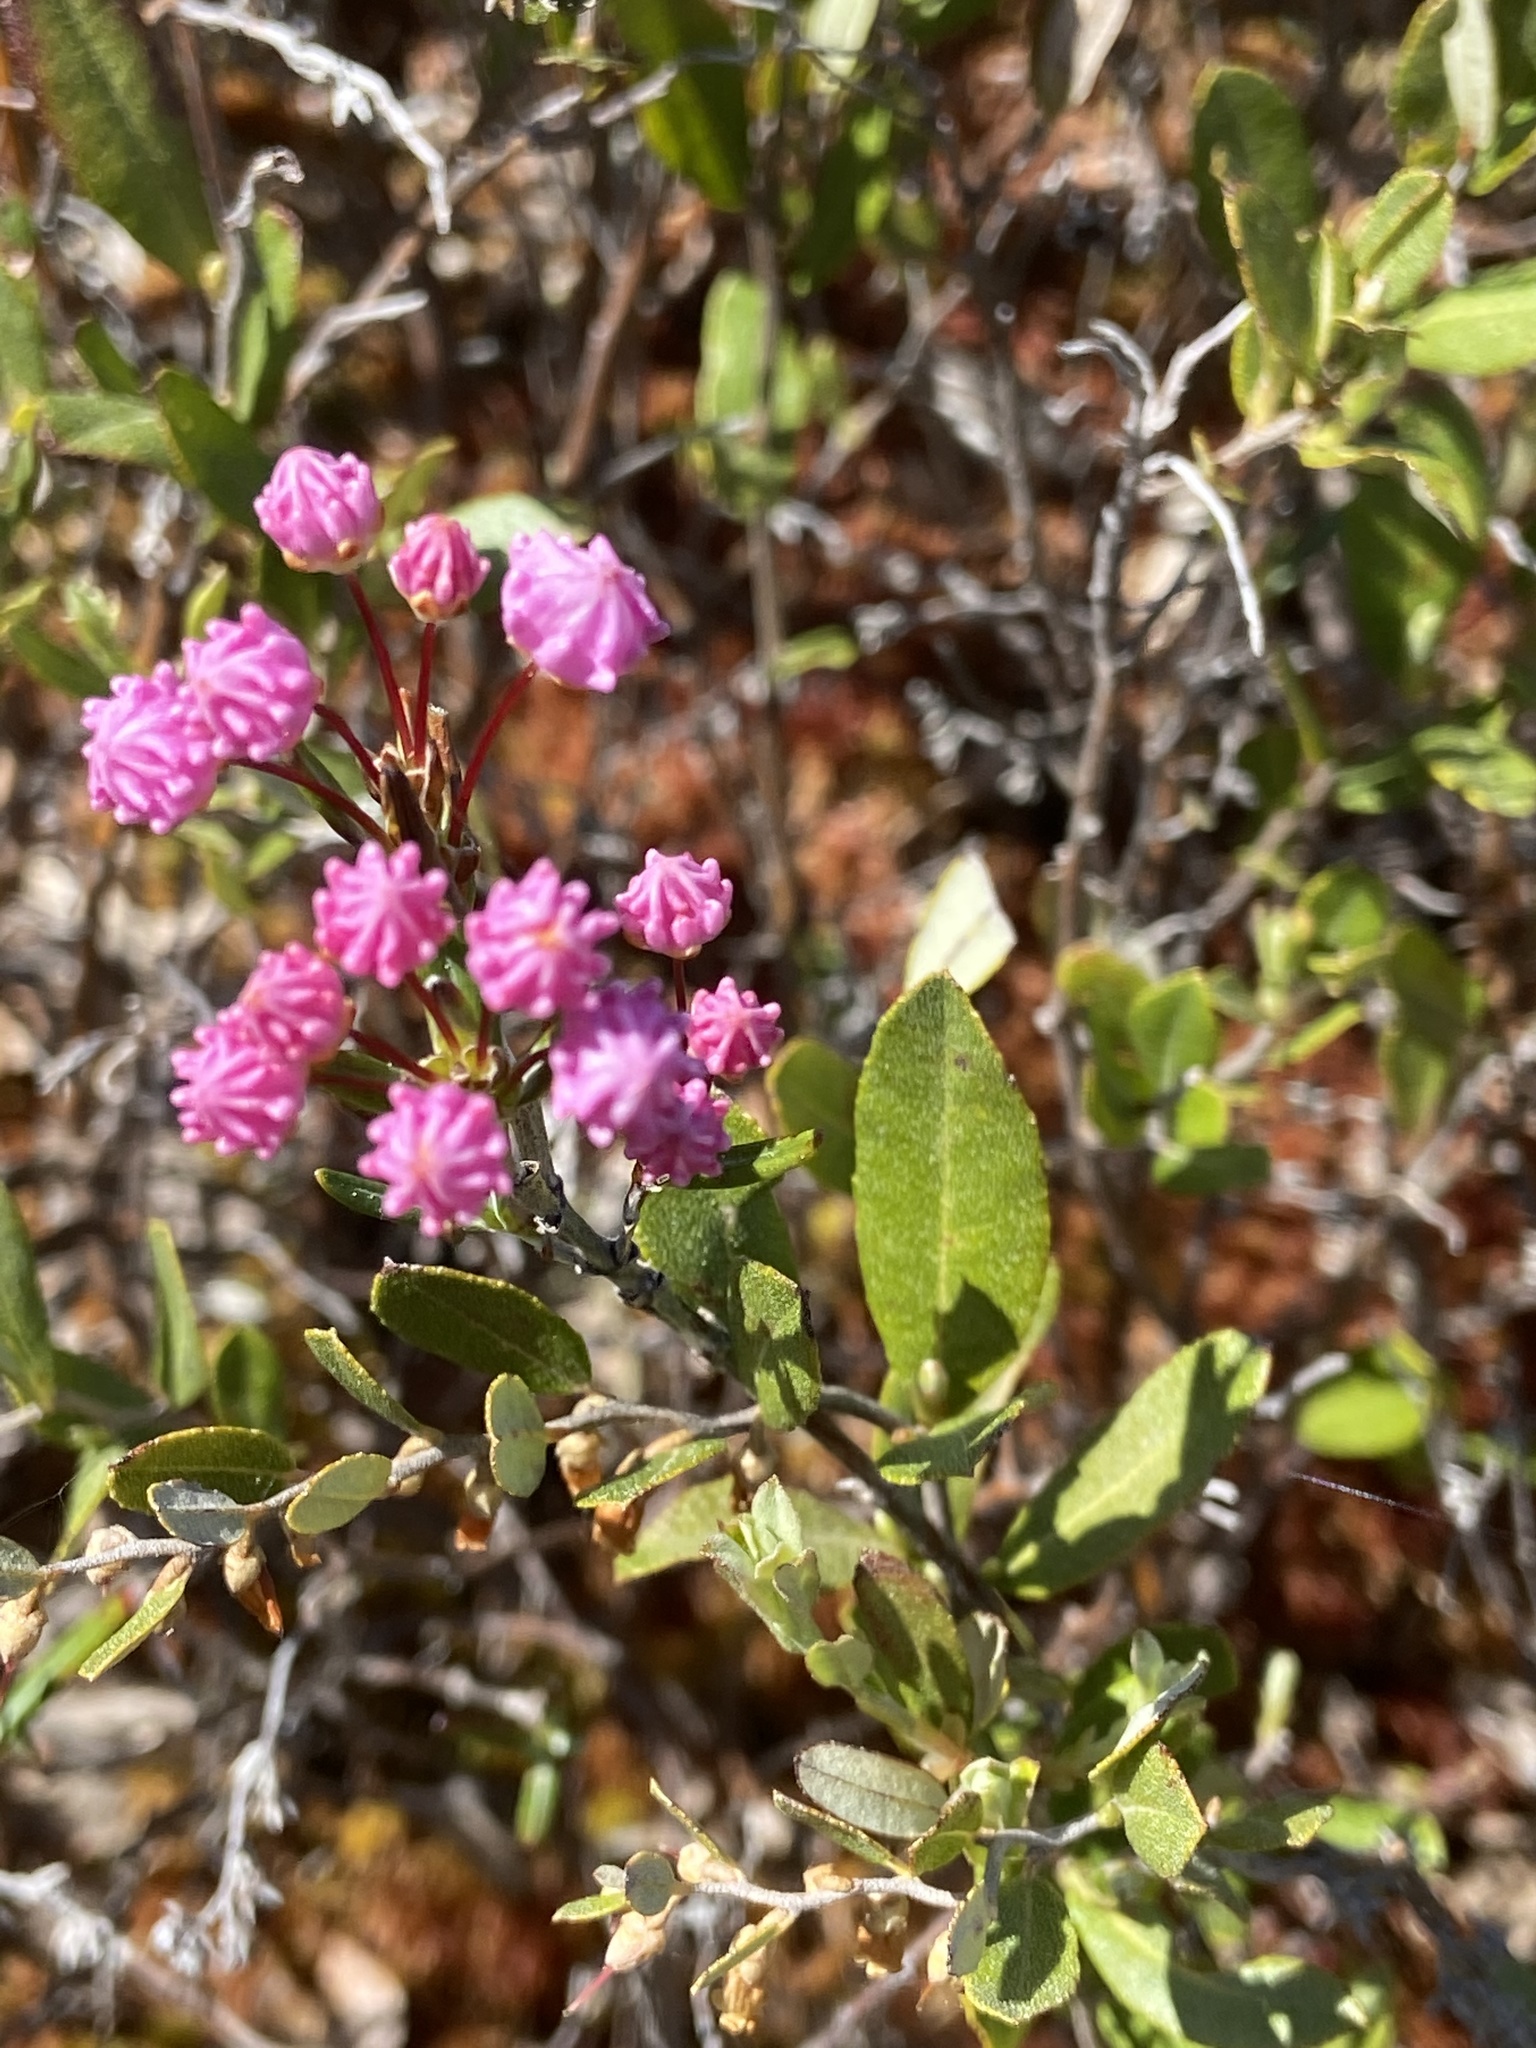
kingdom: Plantae
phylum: Tracheophyta
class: Magnoliopsida
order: Ericales
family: Ericaceae
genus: Kalmia
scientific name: Kalmia polifolia
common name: Bog-laurel
